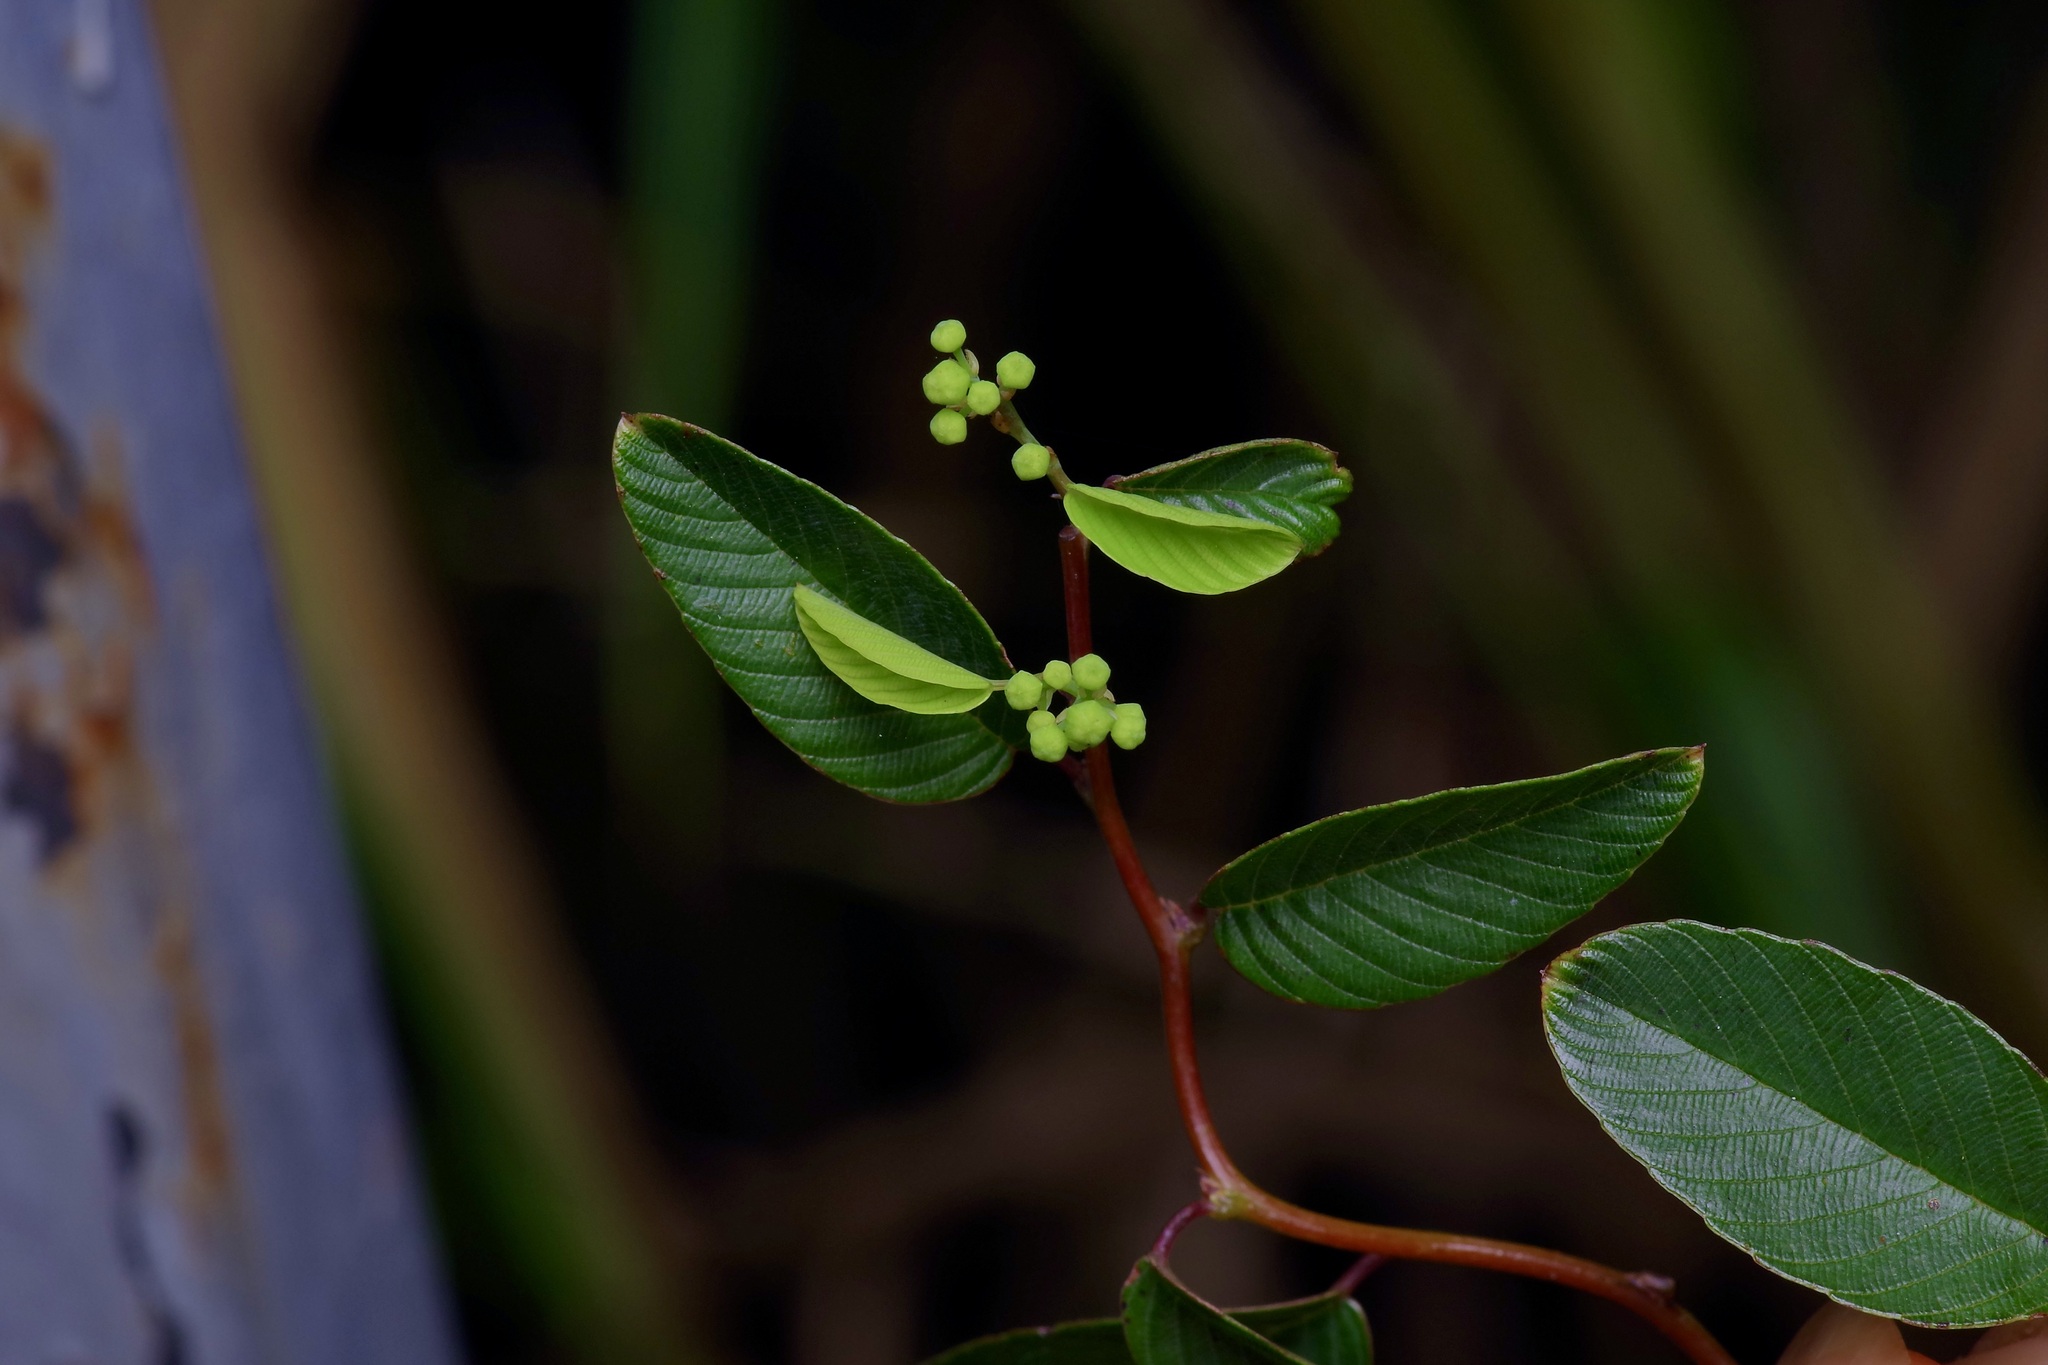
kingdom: Plantae
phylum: Tracheophyta
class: Magnoliopsida
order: Rosales
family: Rhamnaceae
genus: Berchemia
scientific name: Berchemia scandens
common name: Supplejack
